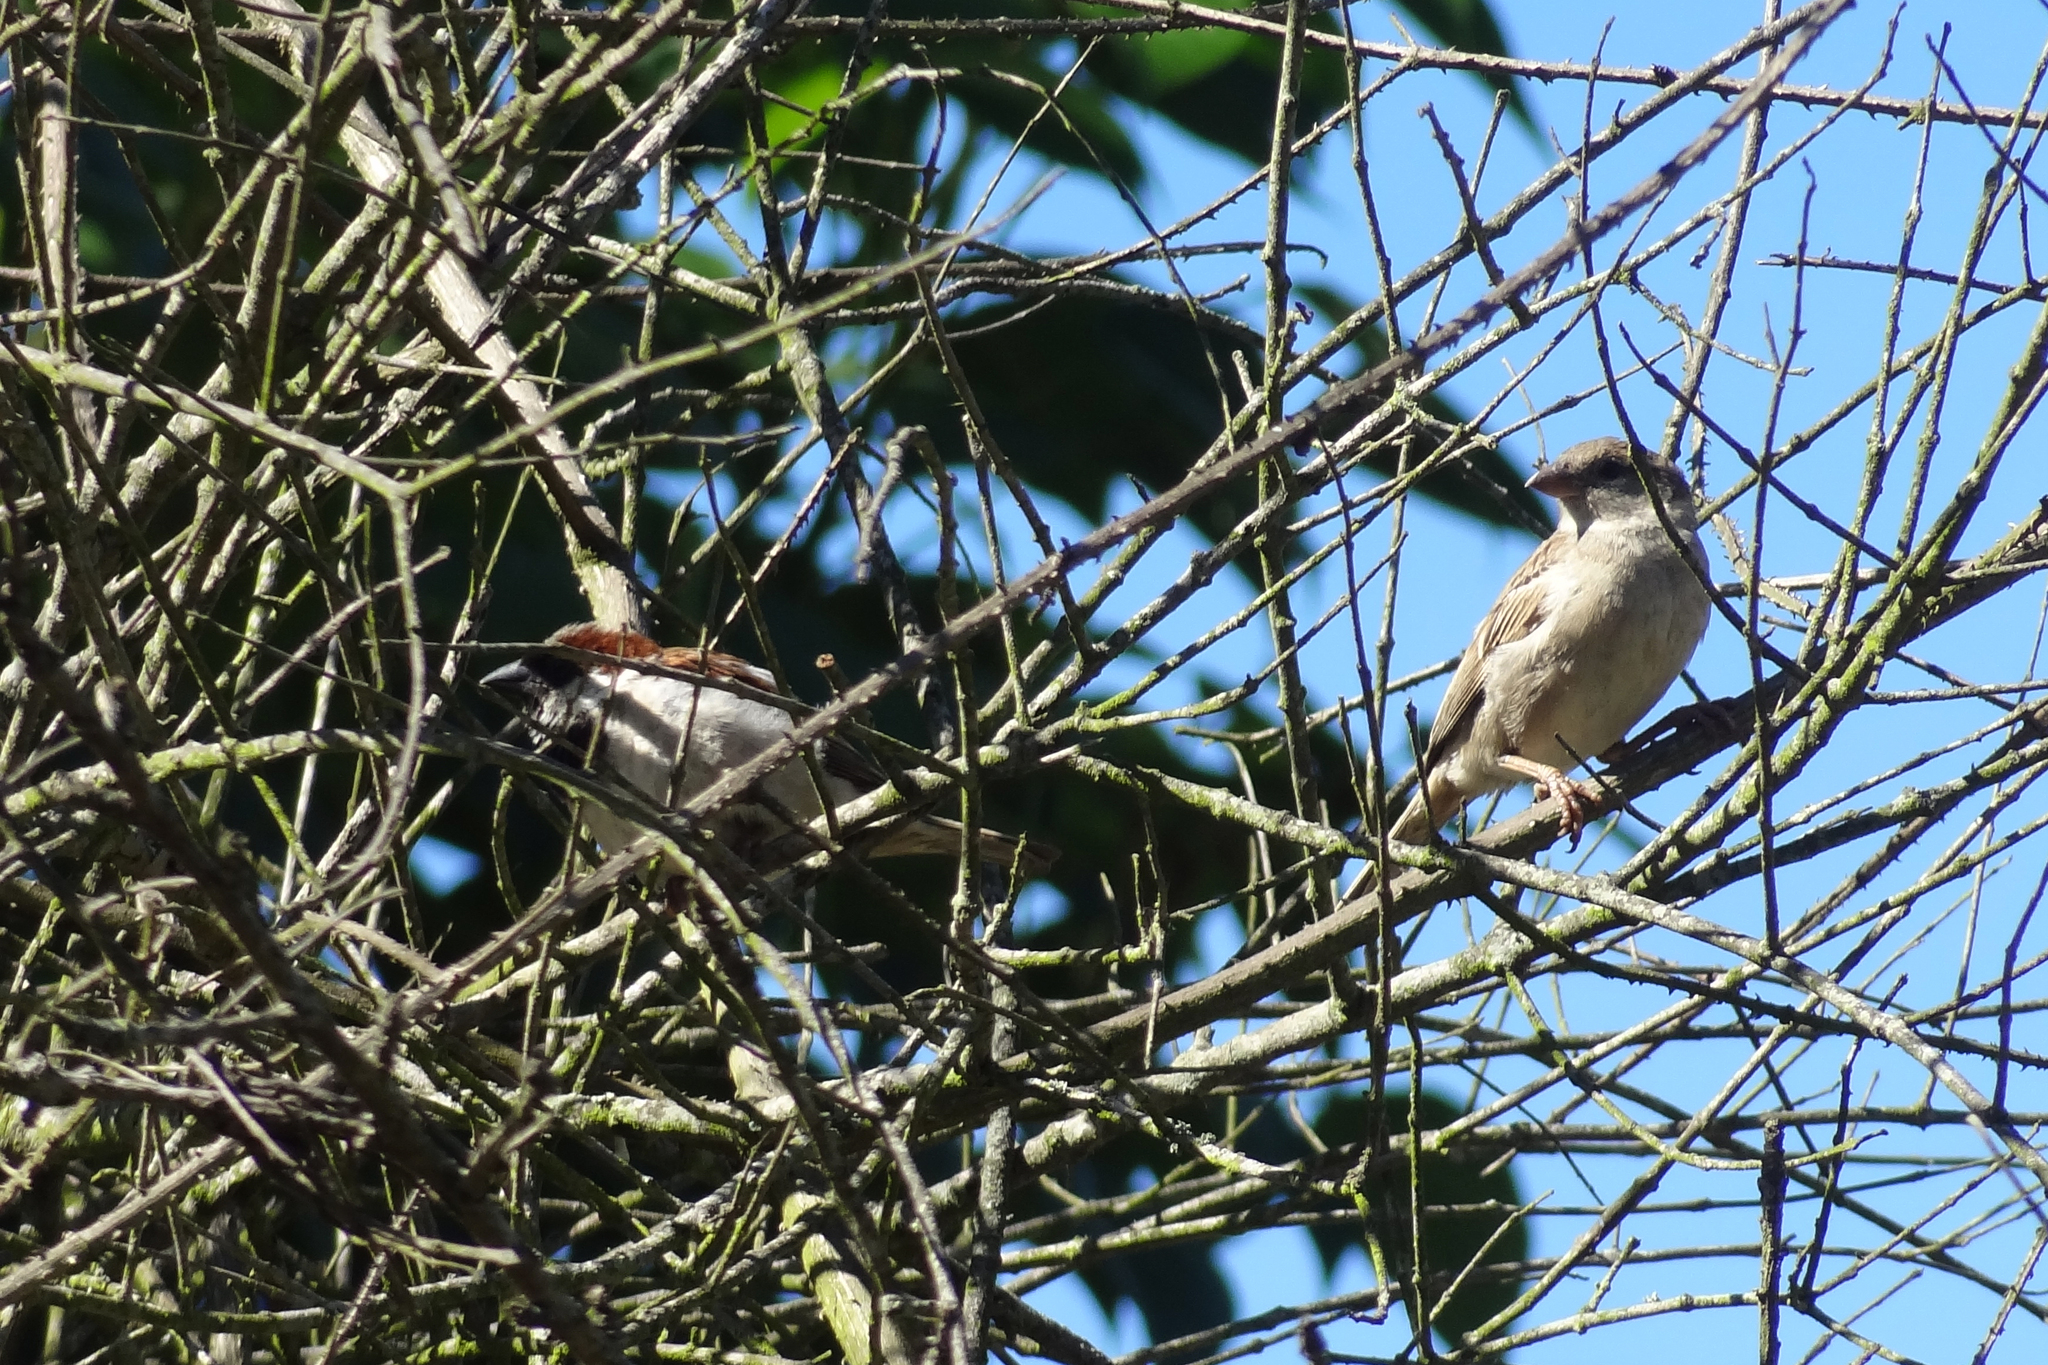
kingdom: Animalia
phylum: Chordata
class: Aves
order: Passeriformes
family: Passeridae
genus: Passer
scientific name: Passer domesticus
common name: House sparrow
